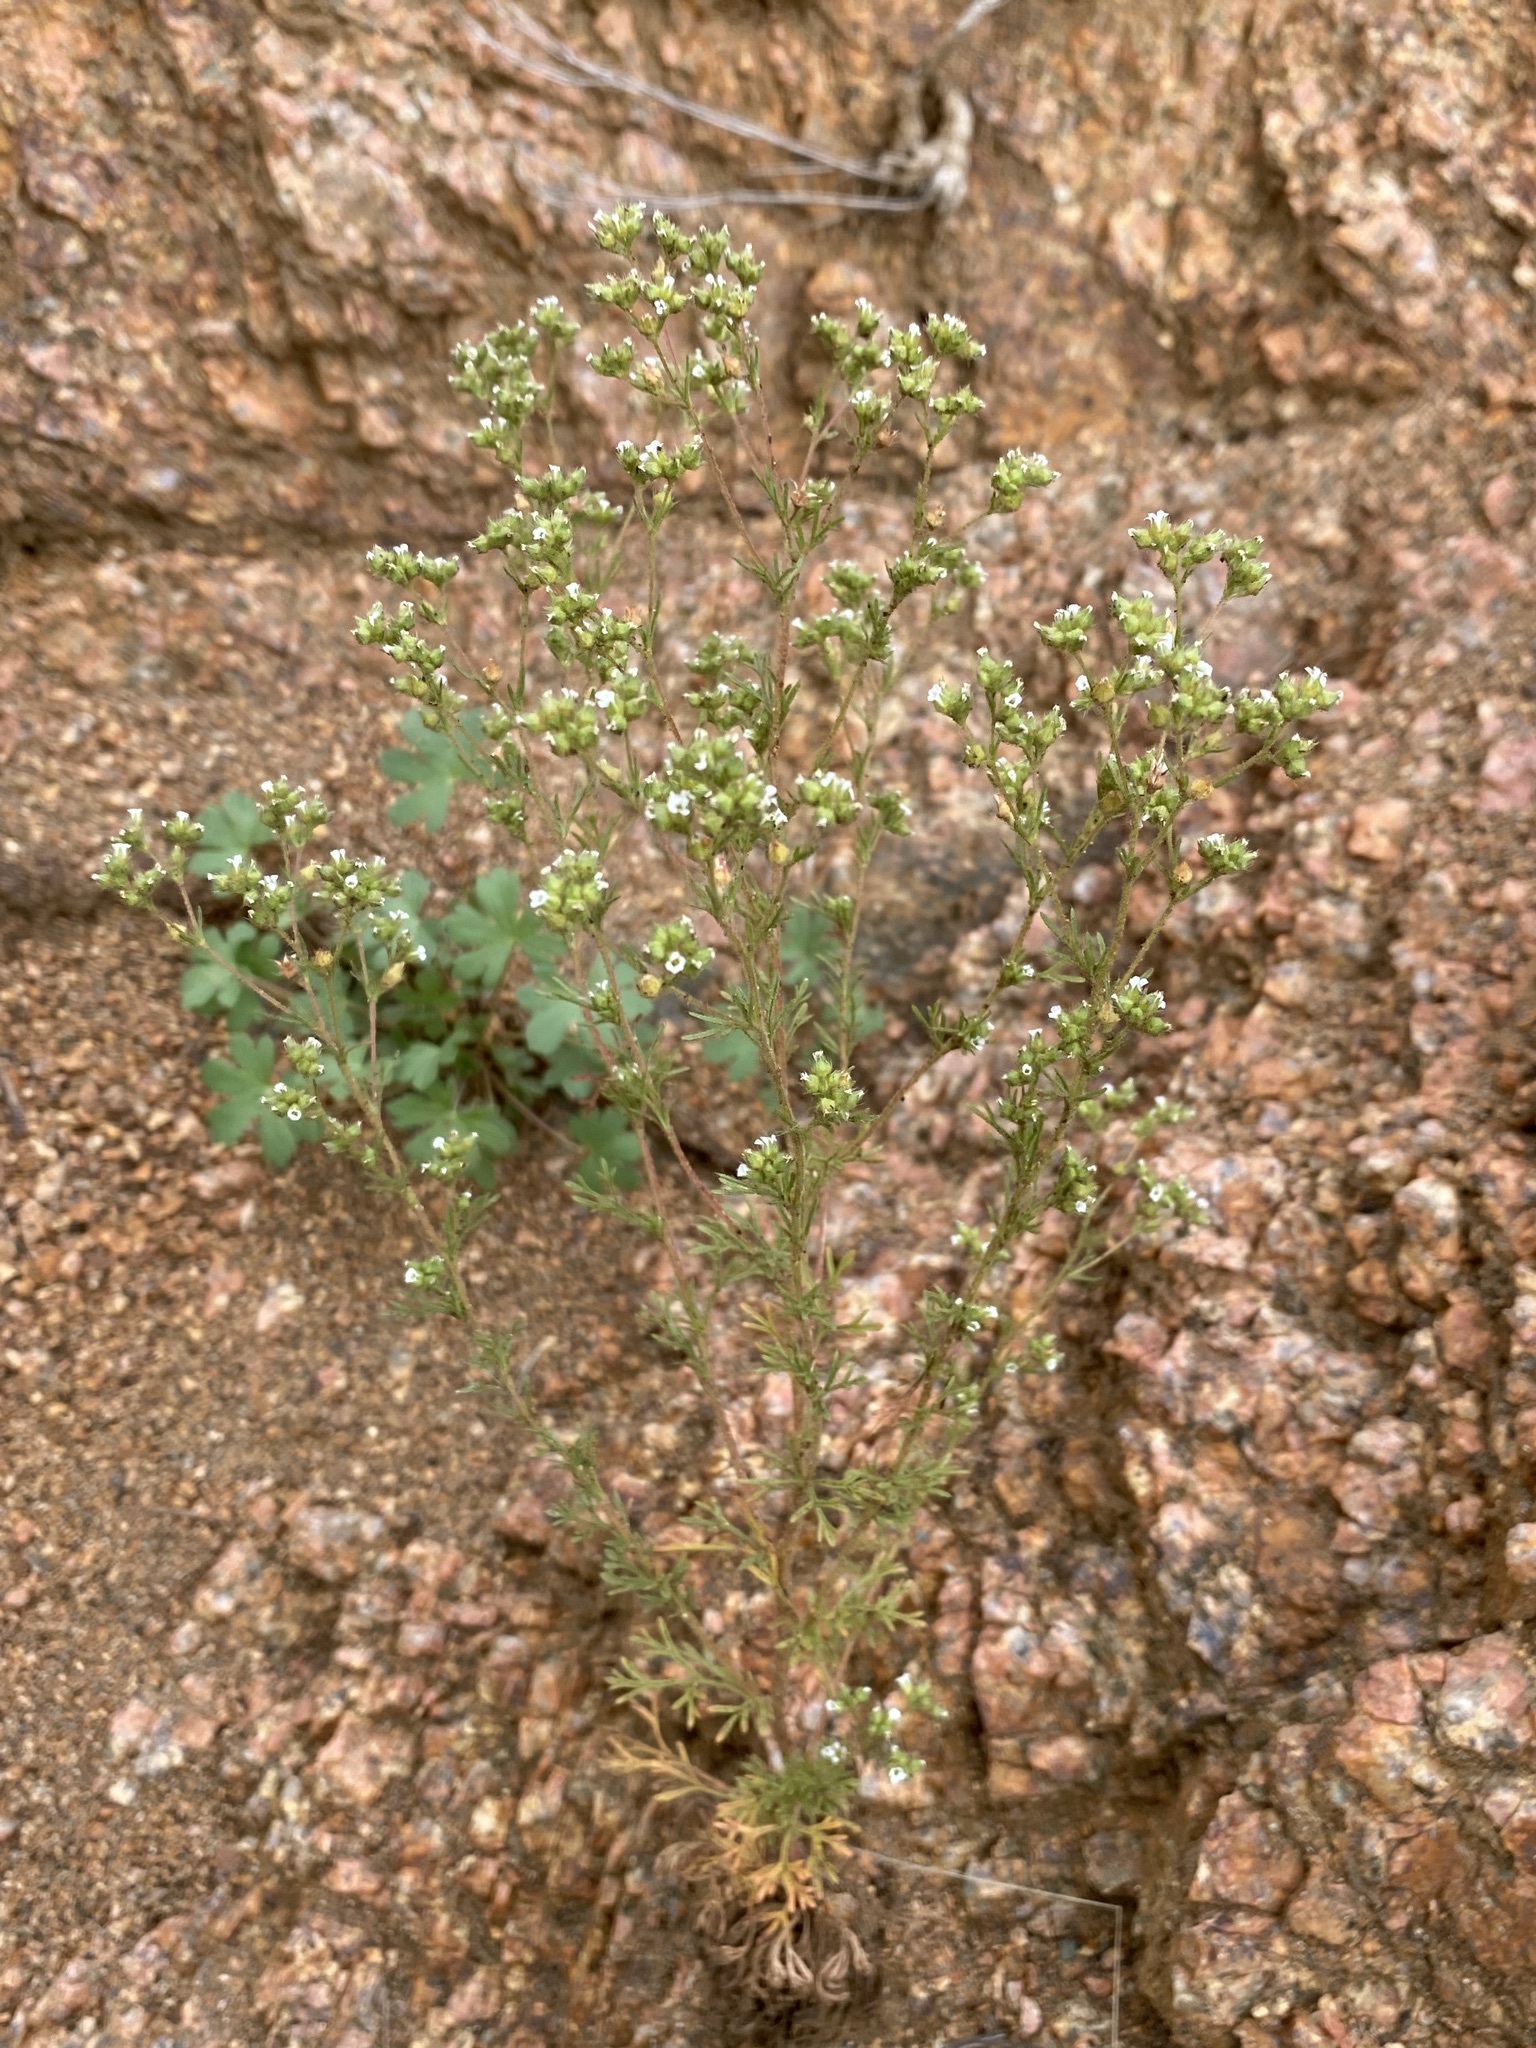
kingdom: Plantae
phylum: Tracheophyta
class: Magnoliopsida
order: Rosales
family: Rosaceae
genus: Chamaerhodos
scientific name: Chamaerhodos erecta
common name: American chamaerhodos
